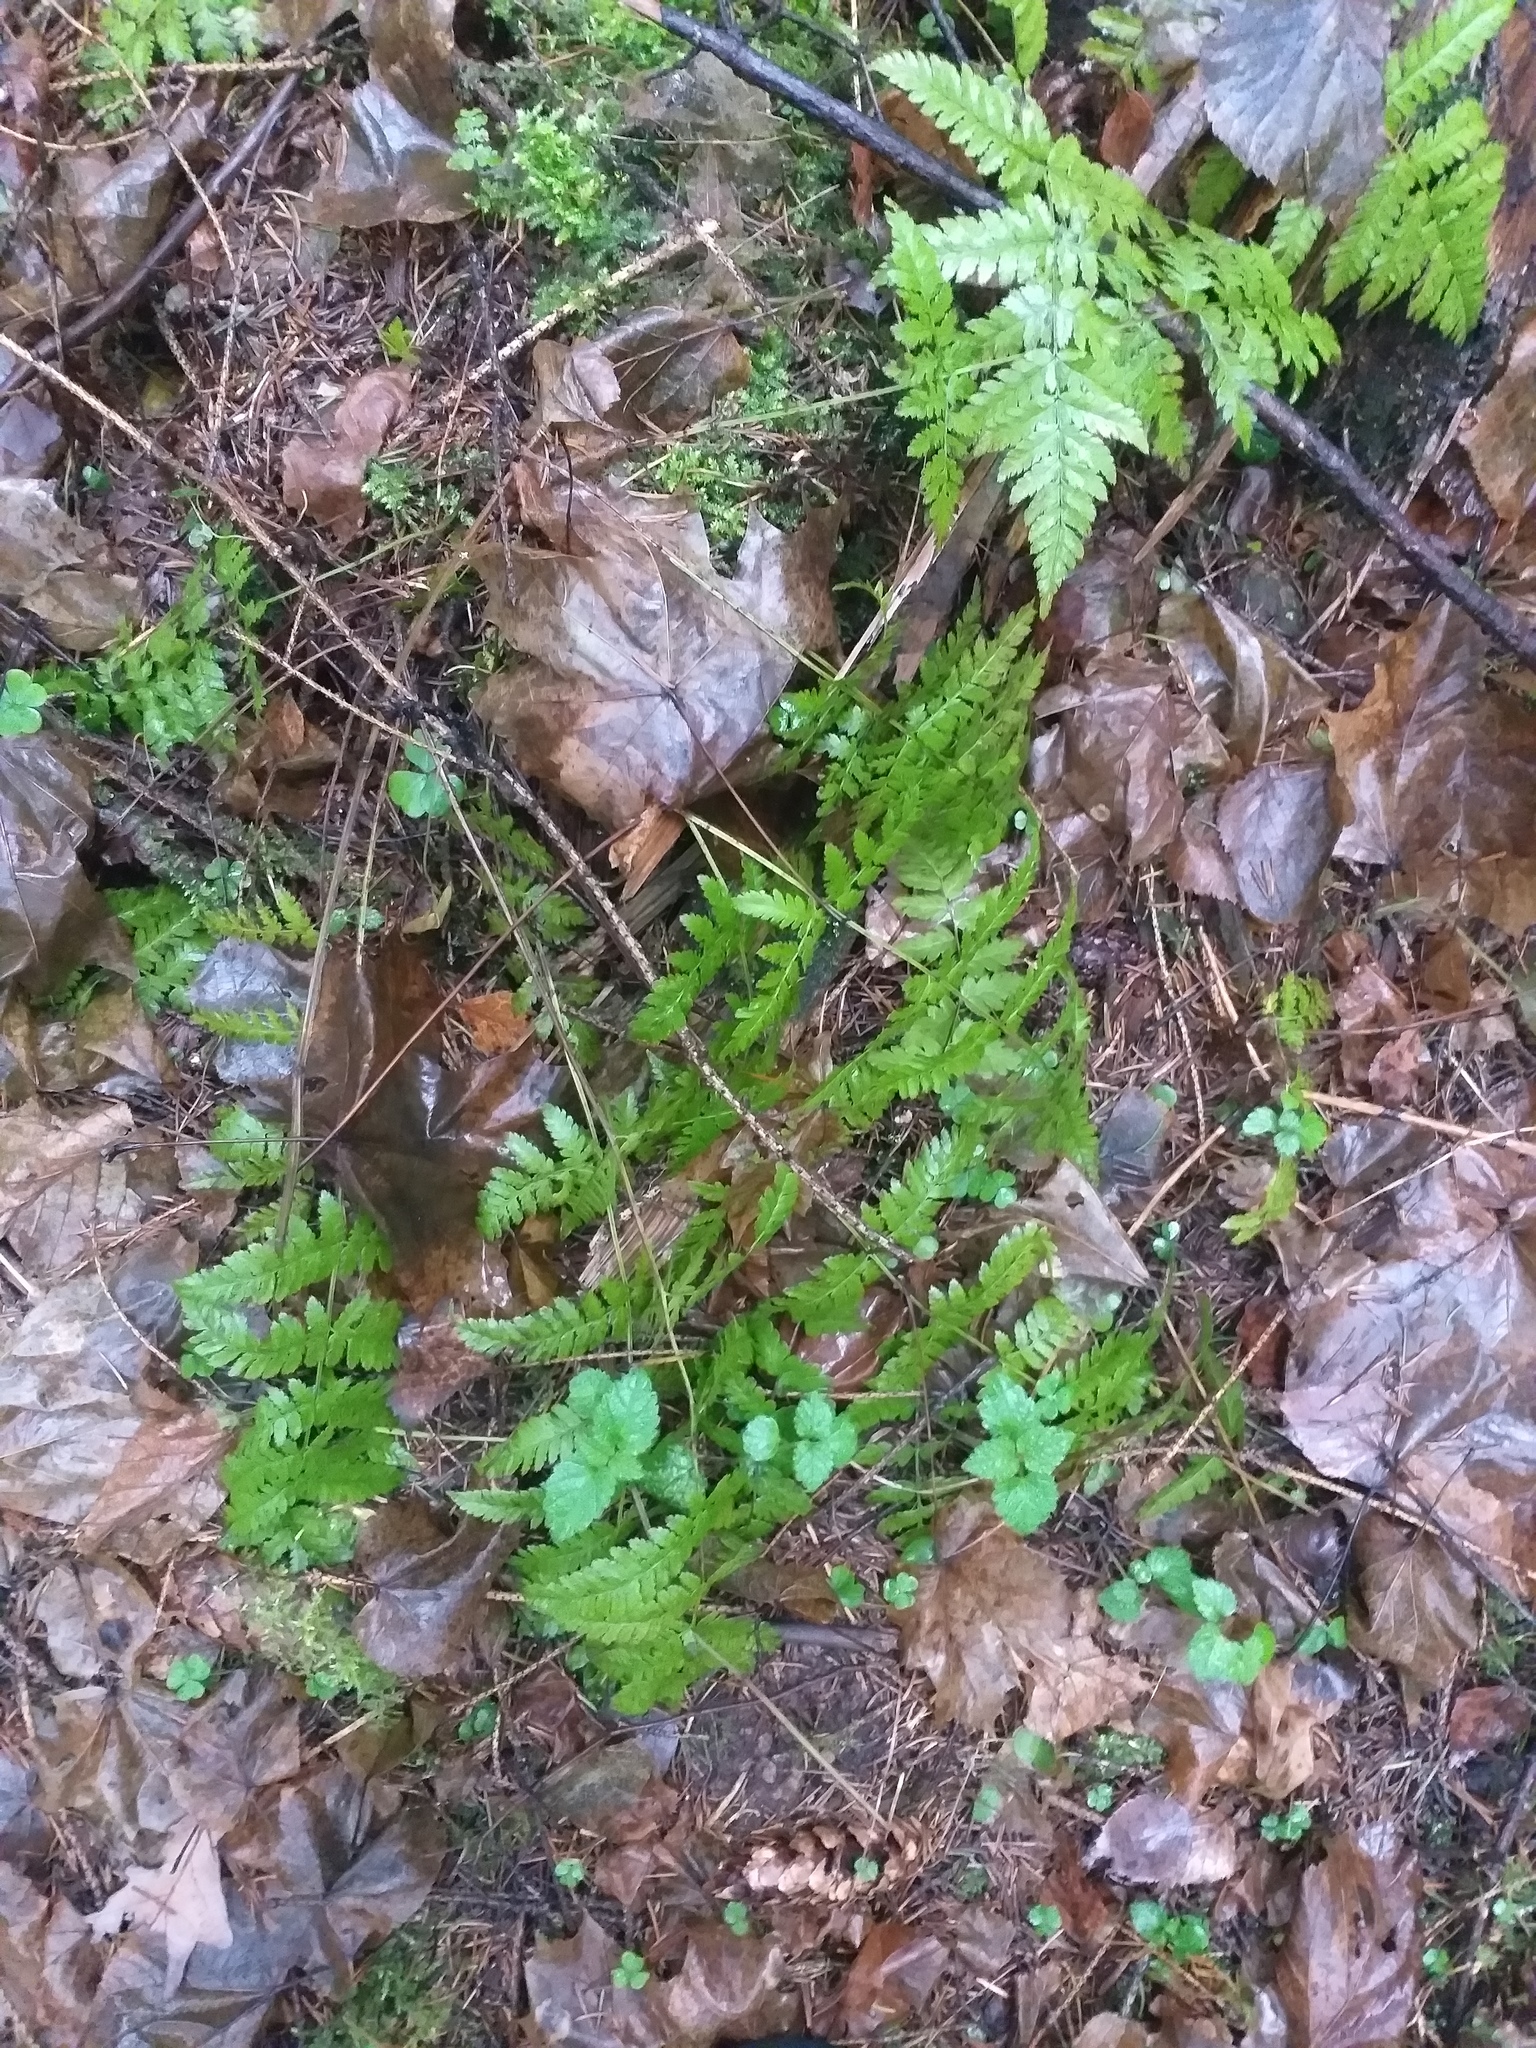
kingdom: Plantae
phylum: Tracheophyta
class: Polypodiopsida
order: Polypodiales
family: Dryopteridaceae
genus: Dryopteris
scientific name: Dryopteris carthusiana
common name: Narrow buckler-fern
